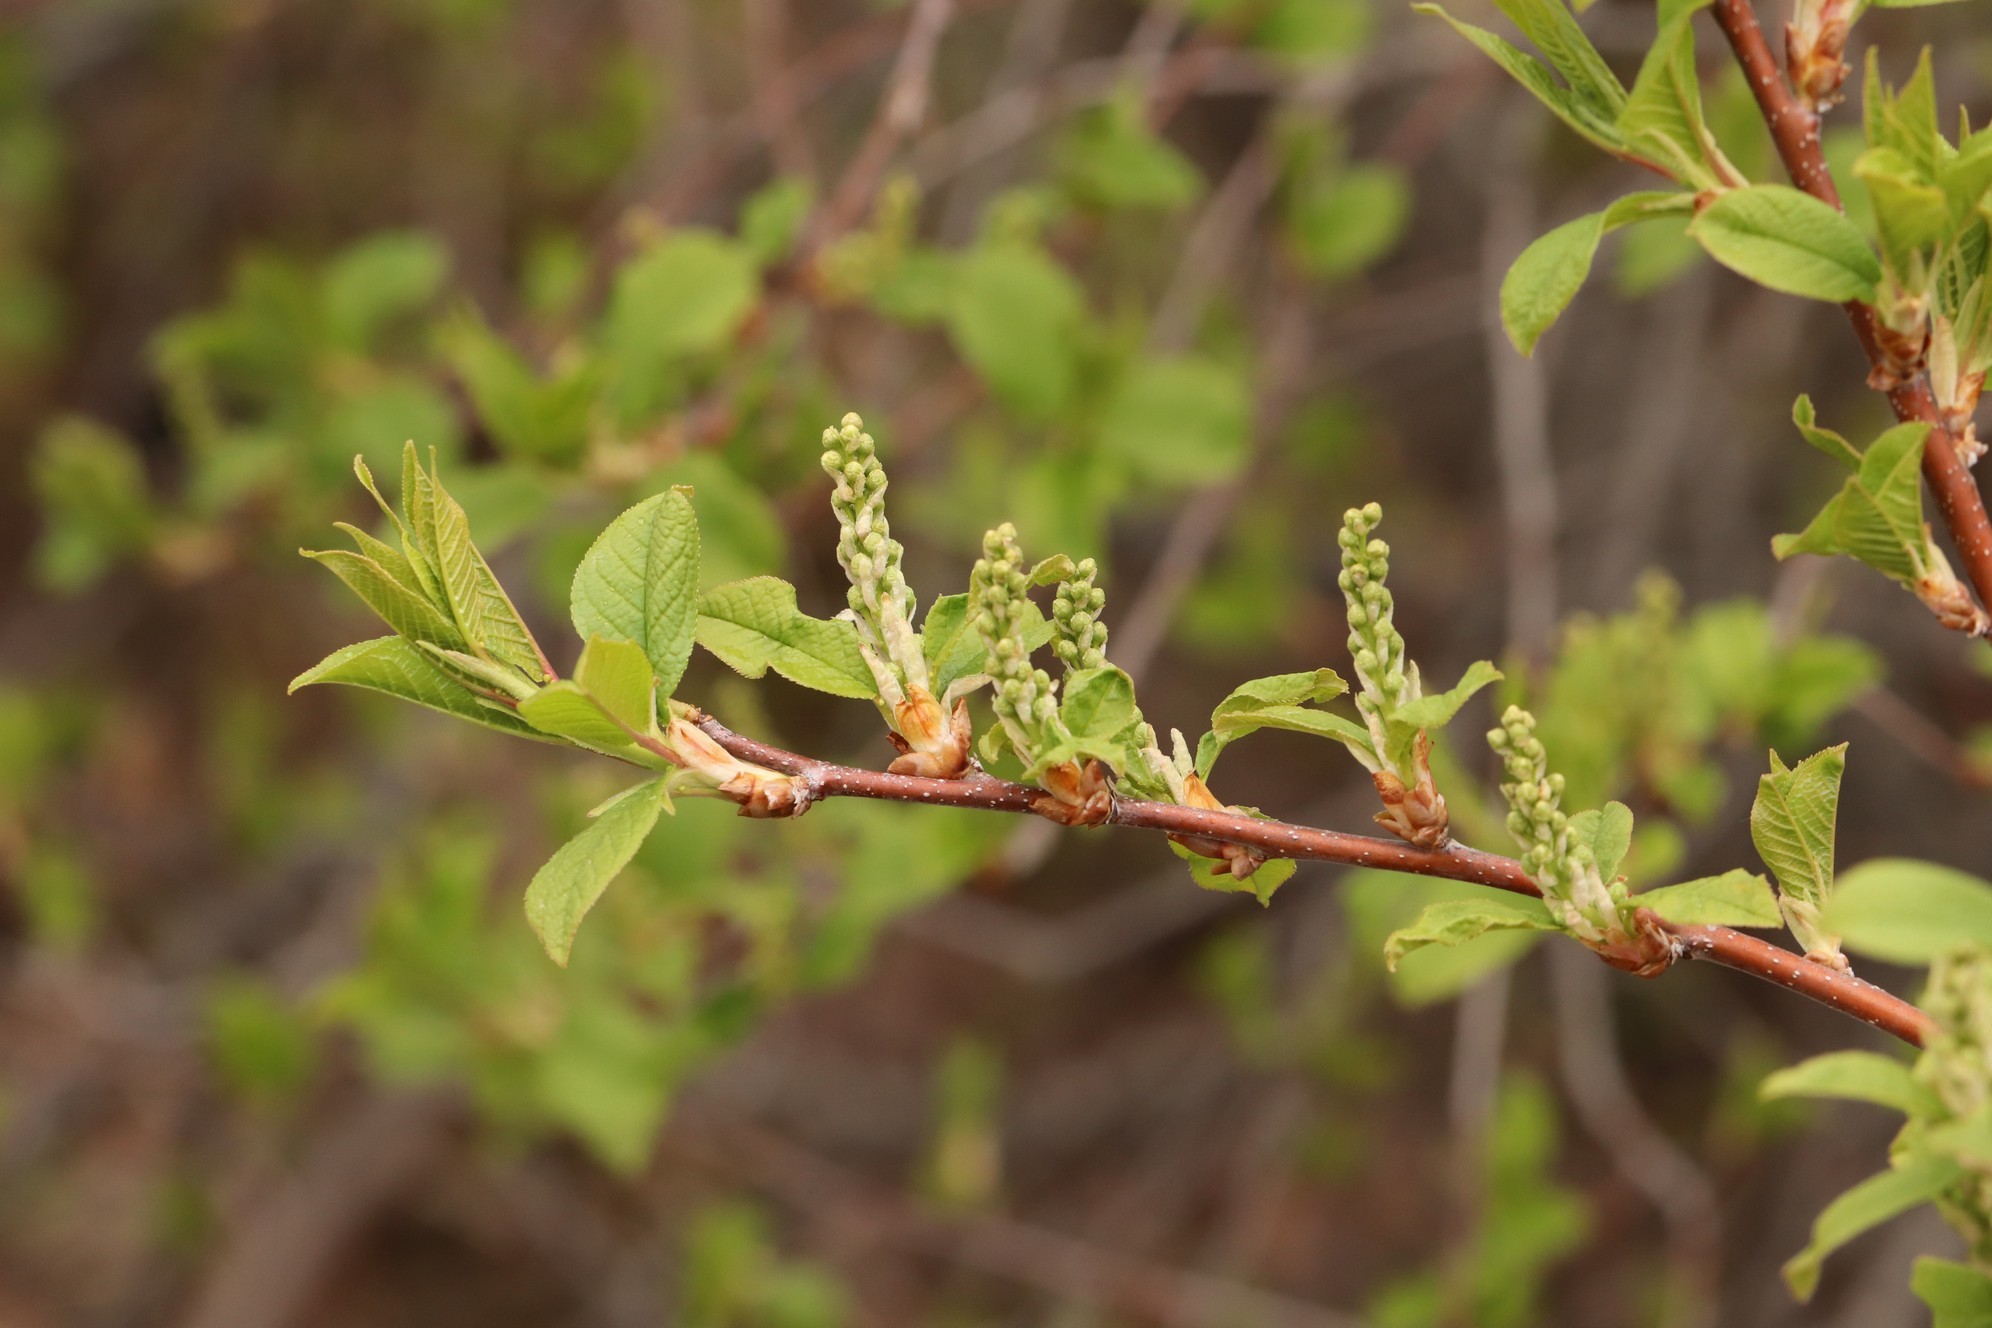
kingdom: Plantae
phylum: Tracheophyta
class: Magnoliopsida
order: Rosales
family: Rosaceae
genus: Prunus
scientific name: Prunus padus
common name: Bird cherry
